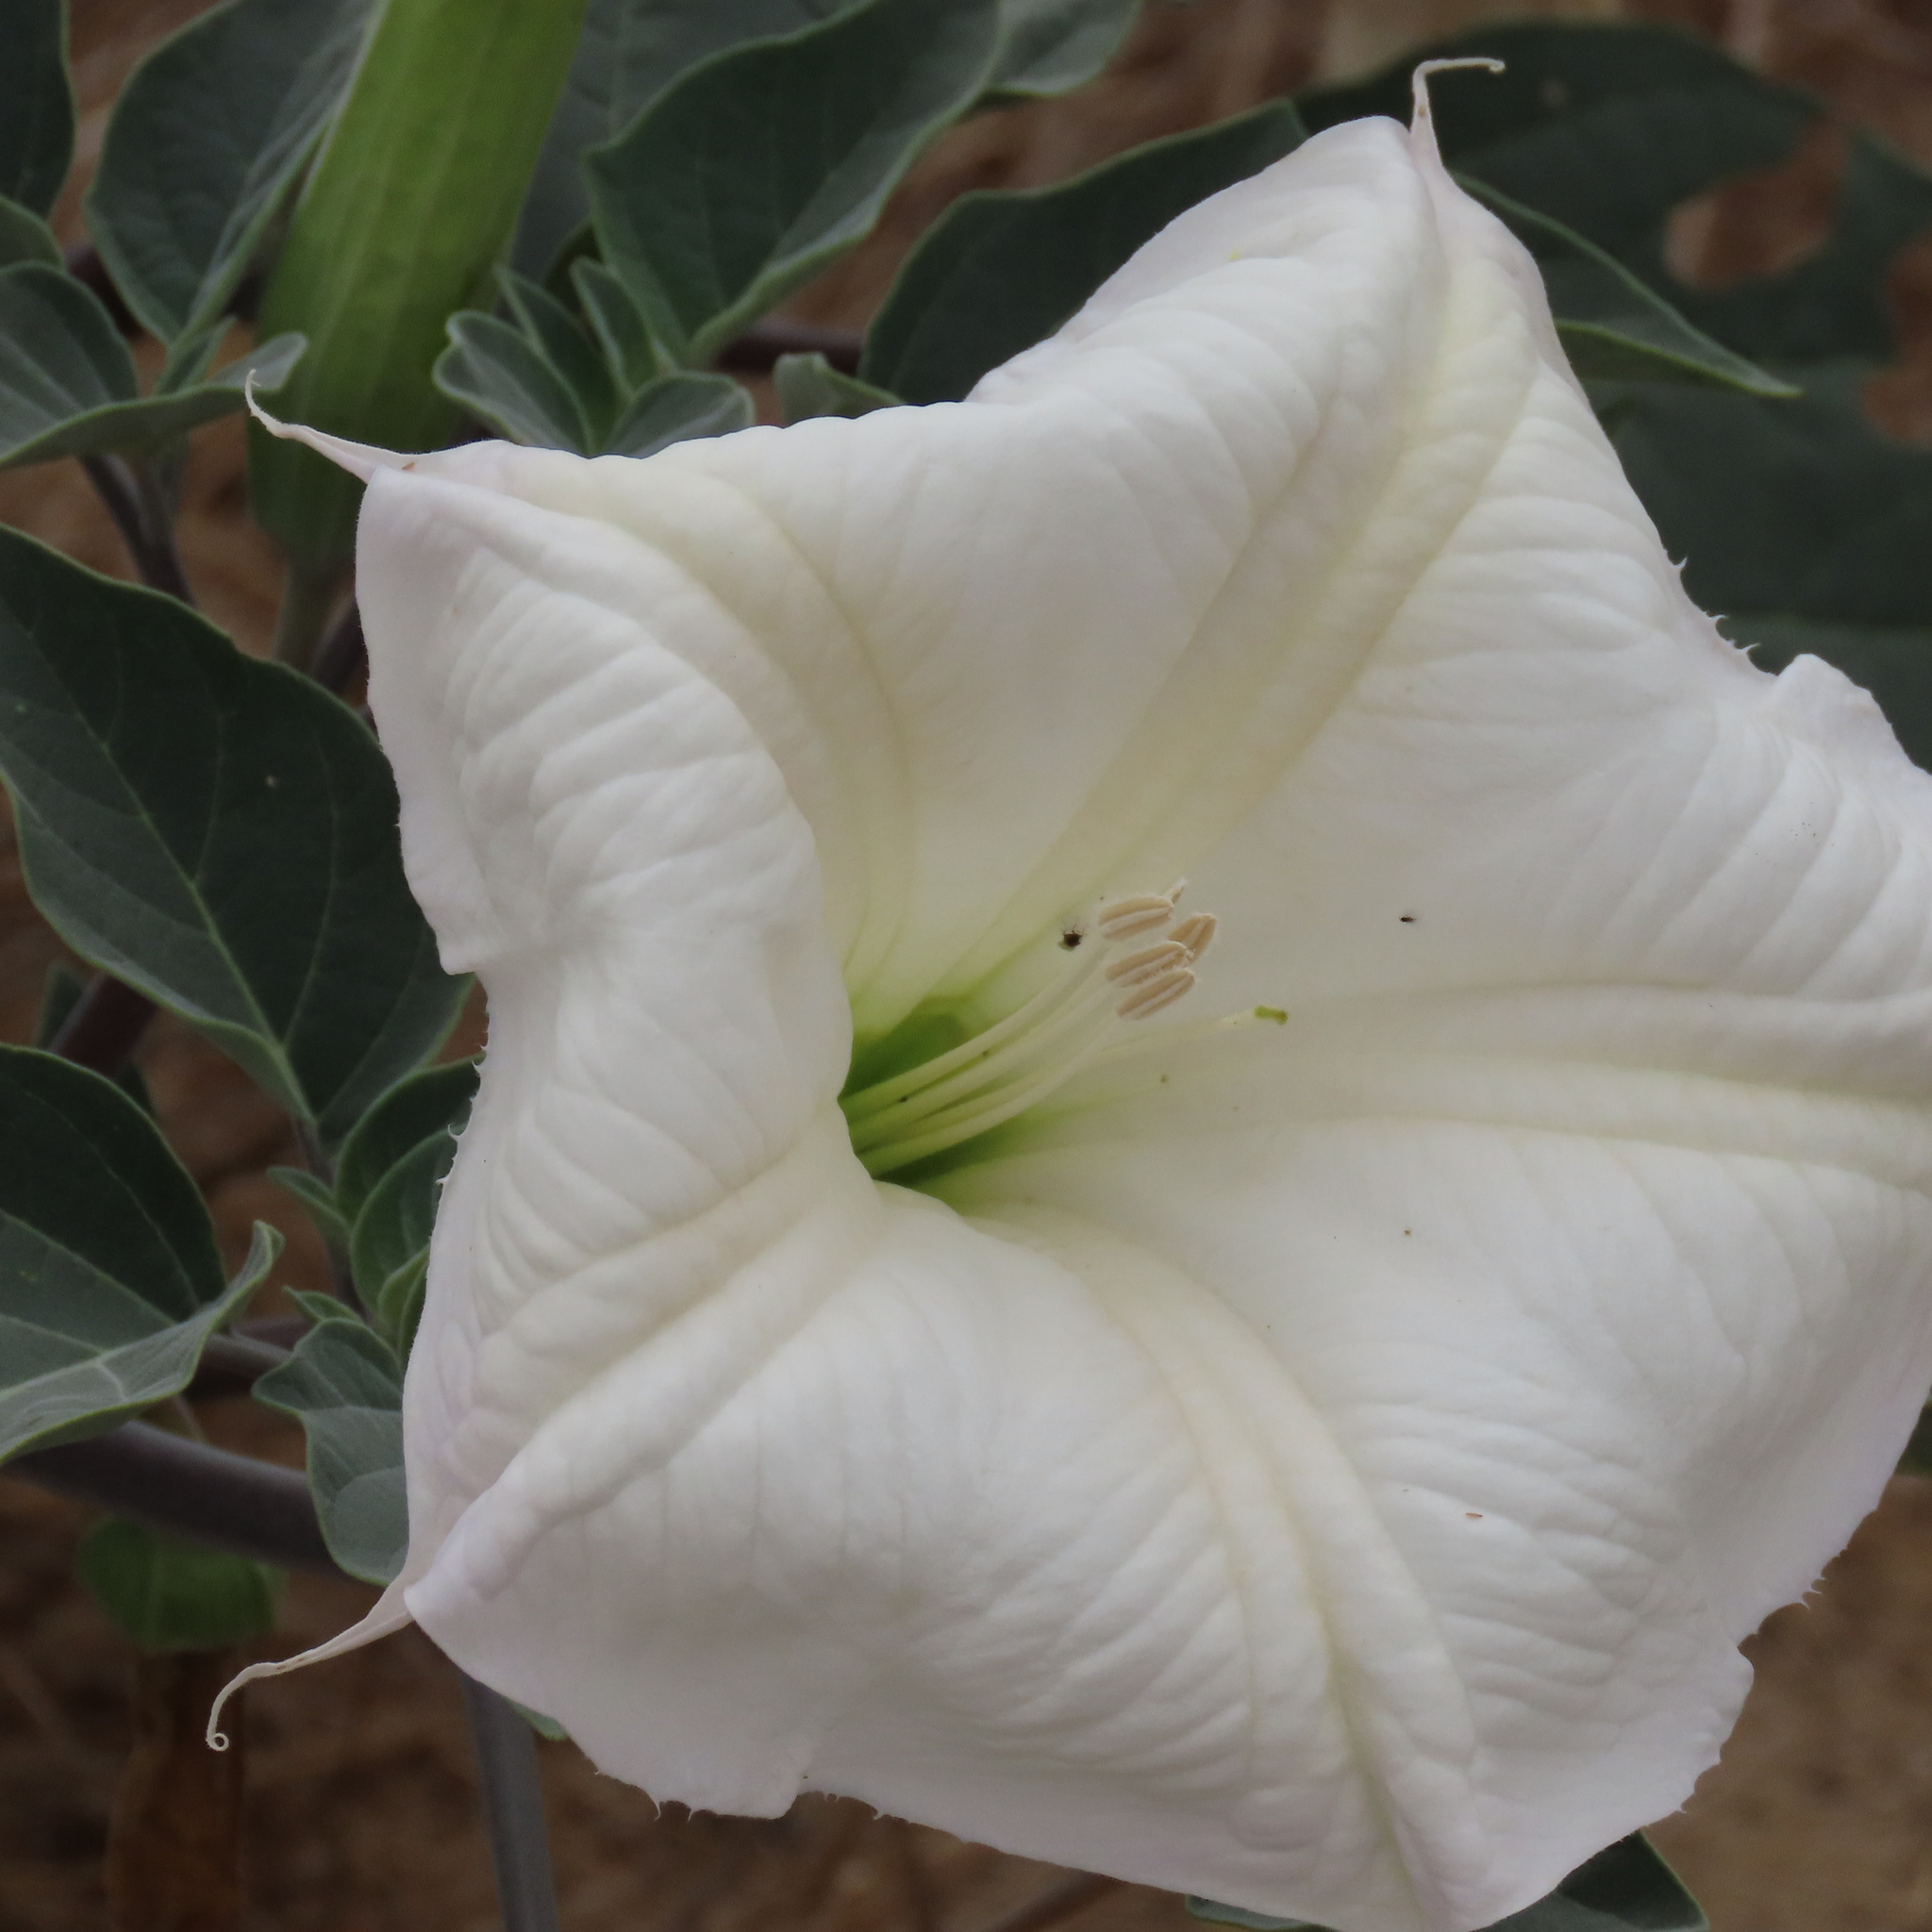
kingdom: Plantae
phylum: Tracheophyta
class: Magnoliopsida
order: Solanales
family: Solanaceae
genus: Datura
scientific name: Datura wrightii
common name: Sacred thorn-apple
